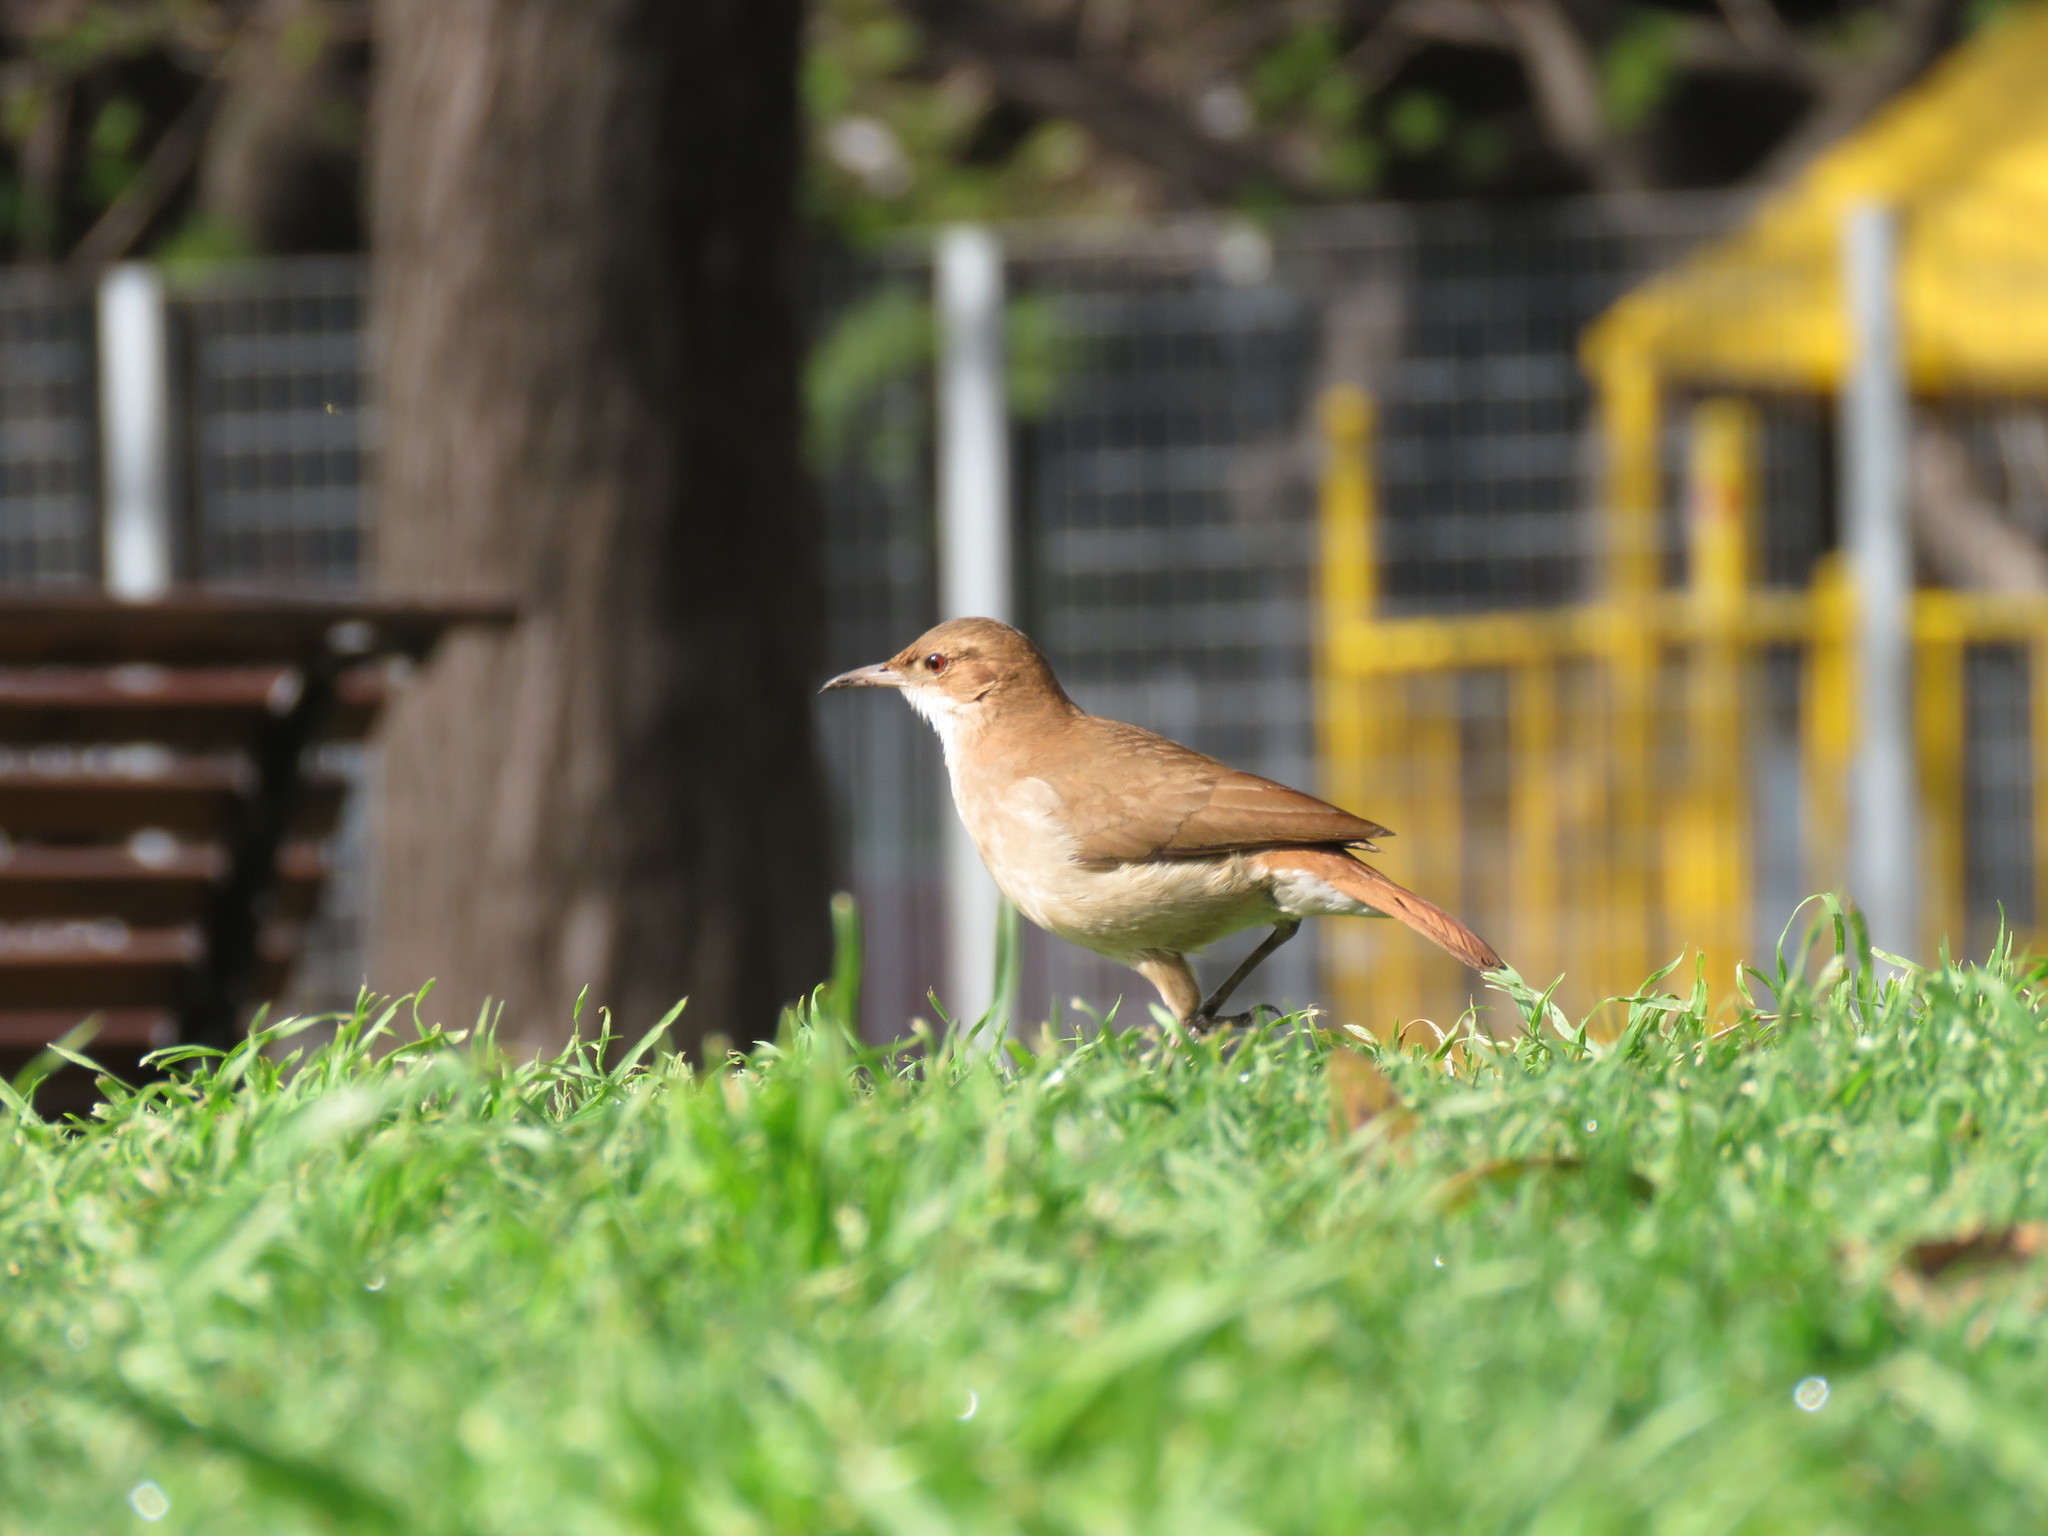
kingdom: Animalia
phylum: Chordata
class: Aves
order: Passeriformes
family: Furnariidae
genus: Furnarius
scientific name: Furnarius rufus
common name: Rufous hornero
